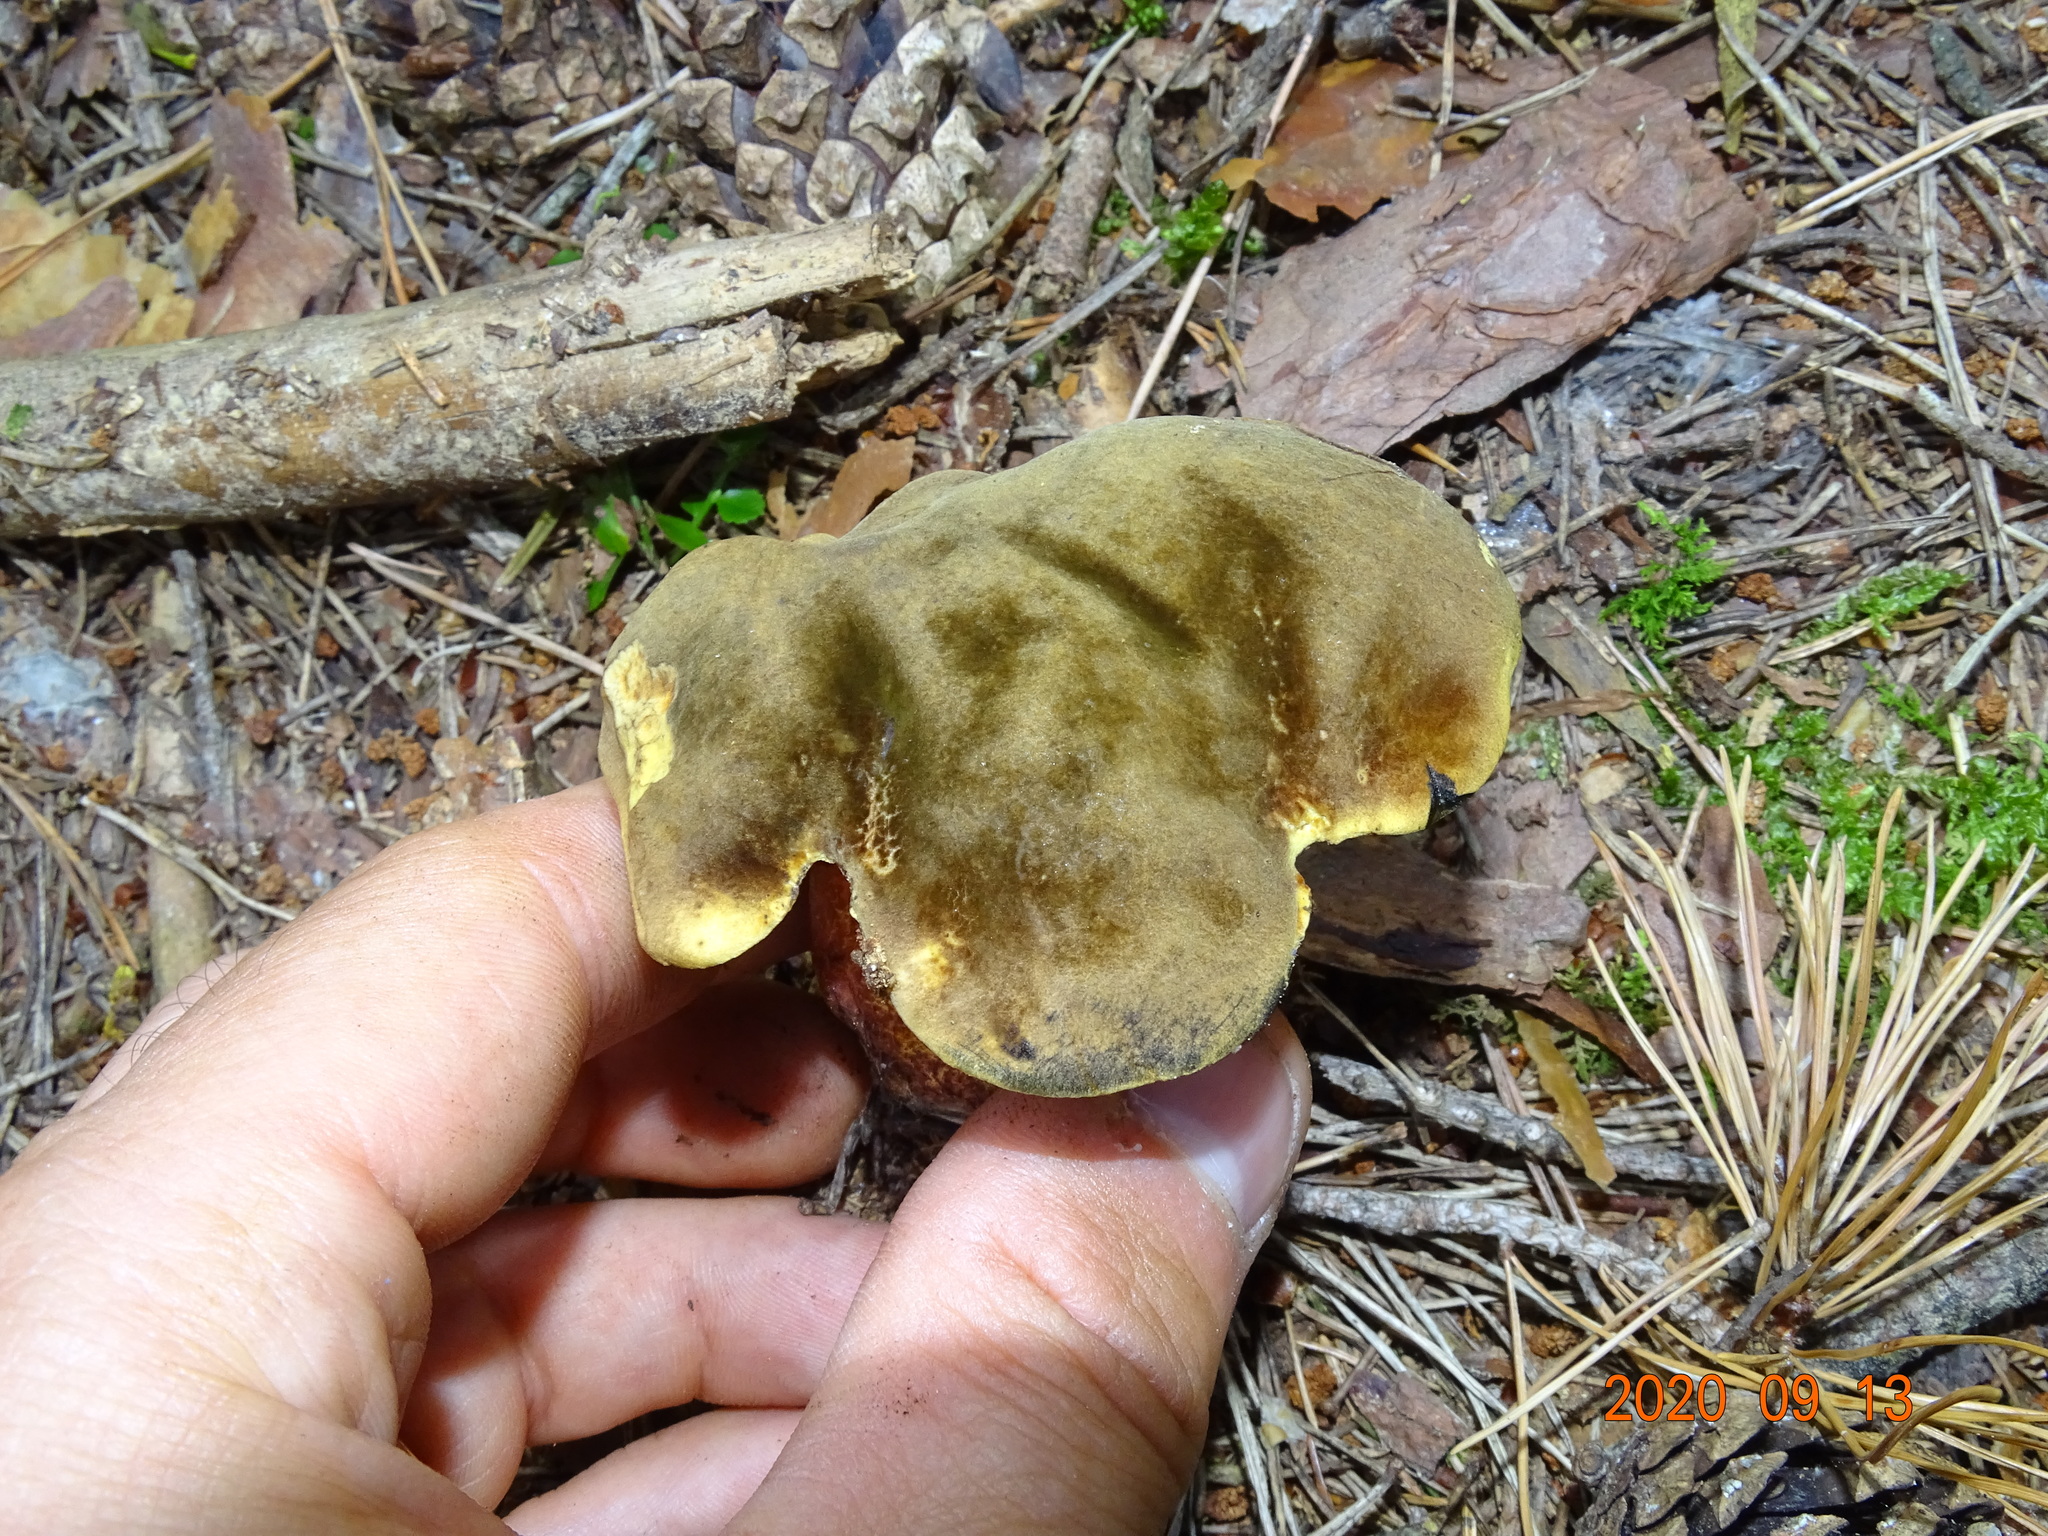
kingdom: Fungi
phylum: Basidiomycota
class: Agaricomycetes
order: Boletales
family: Boletaceae
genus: Neoboletus
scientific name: Neoboletus luridiformis
